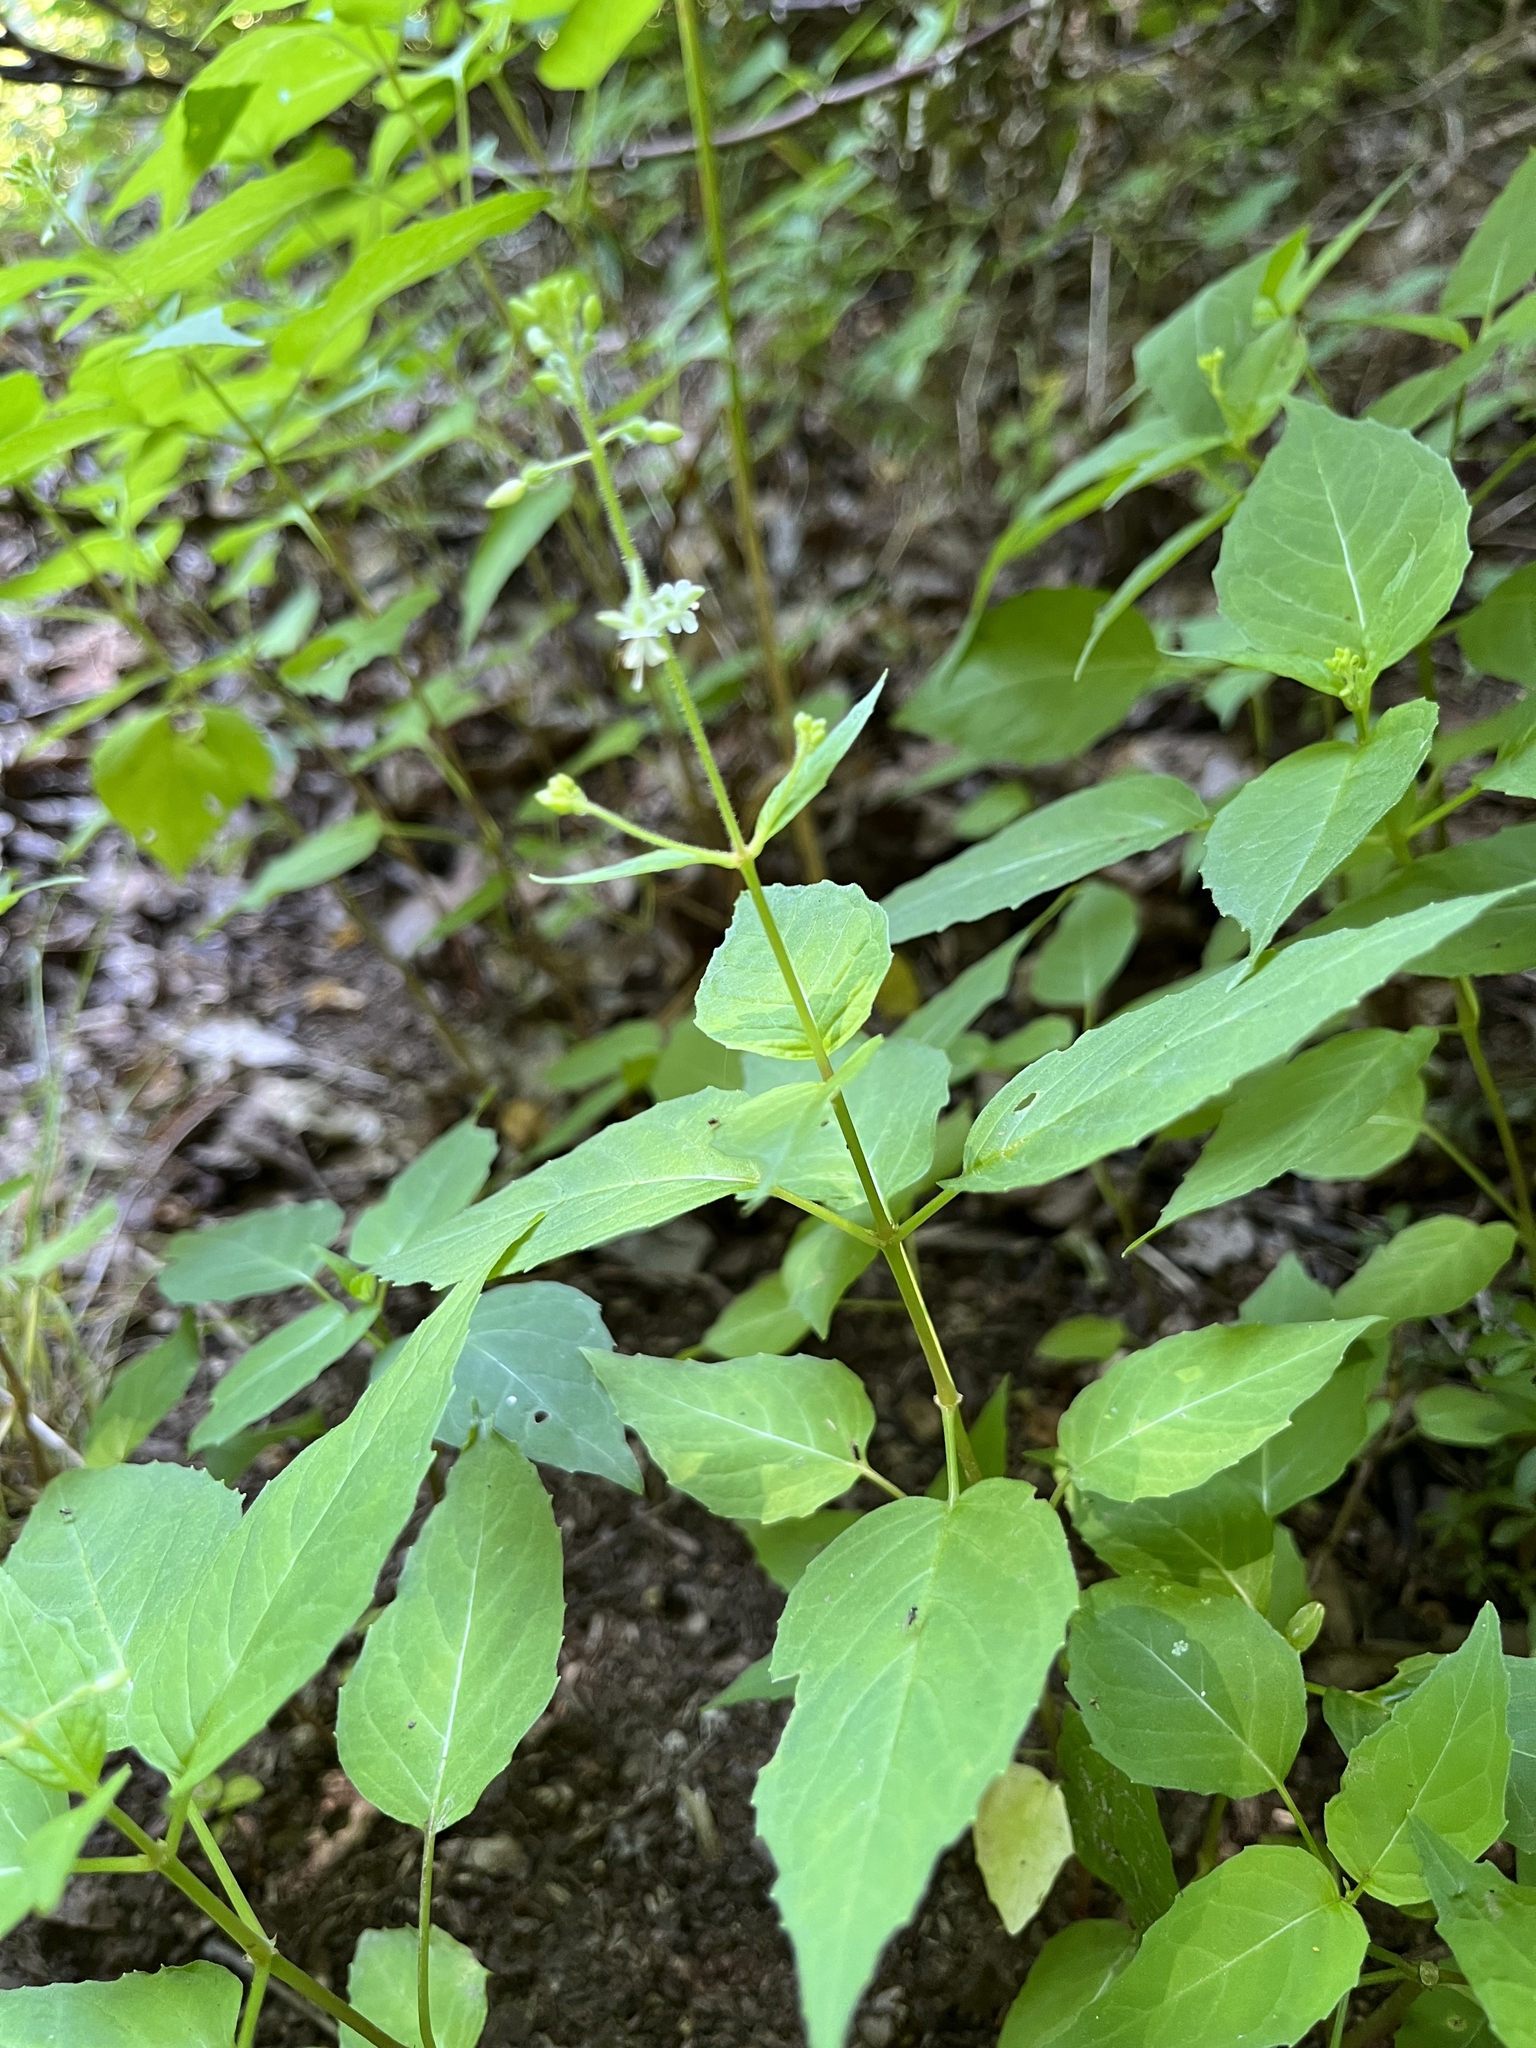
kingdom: Plantae
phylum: Tracheophyta
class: Magnoliopsida
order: Myrtales
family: Onagraceae
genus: Circaea
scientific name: Circaea canadensis
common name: Broad-leaved enchanter's nightshade
